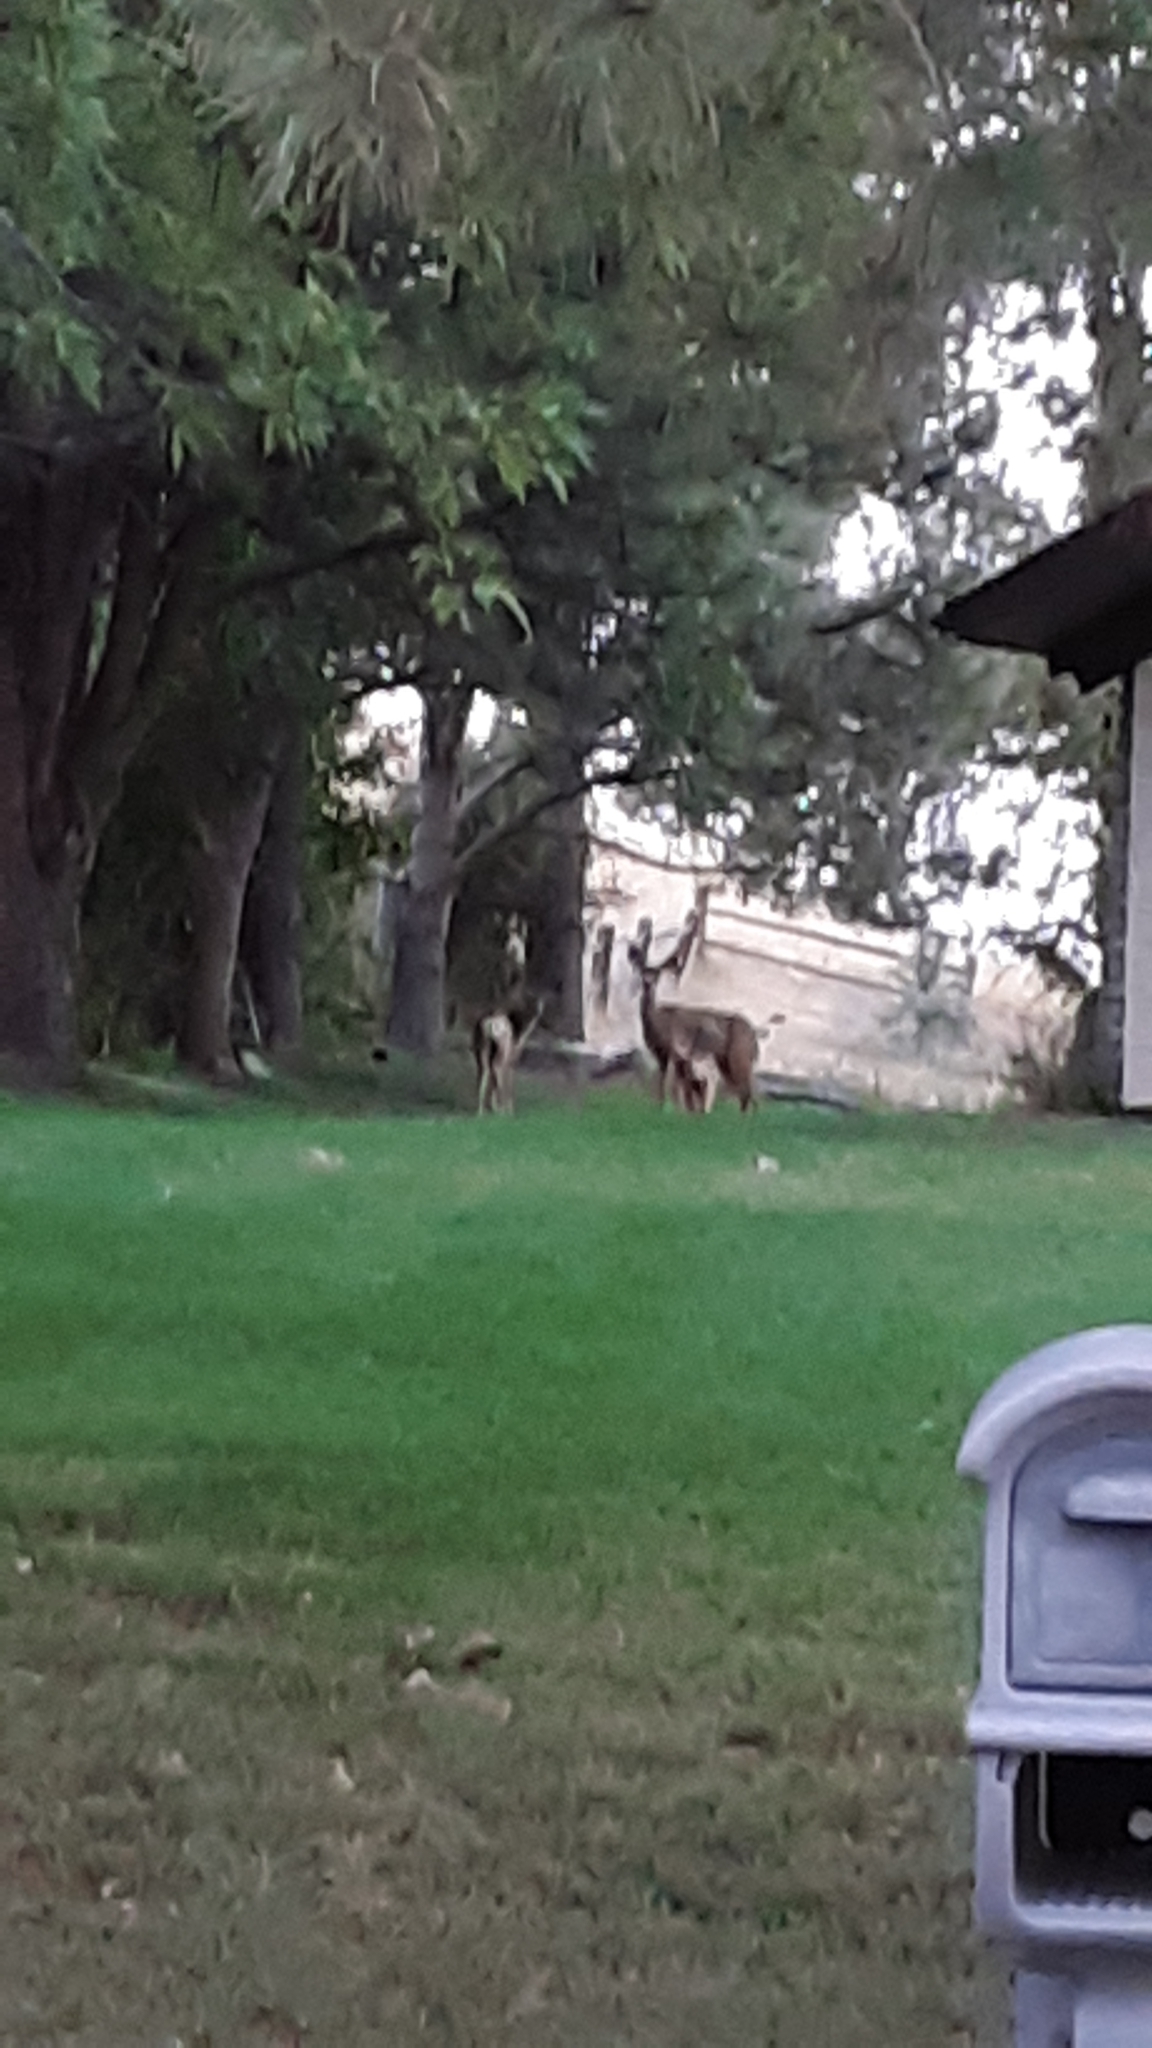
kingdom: Animalia
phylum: Chordata
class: Mammalia
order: Artiodactyla
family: Cervidae
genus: Odocoileus
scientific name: Odocoileus hemionus
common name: Mule deer
